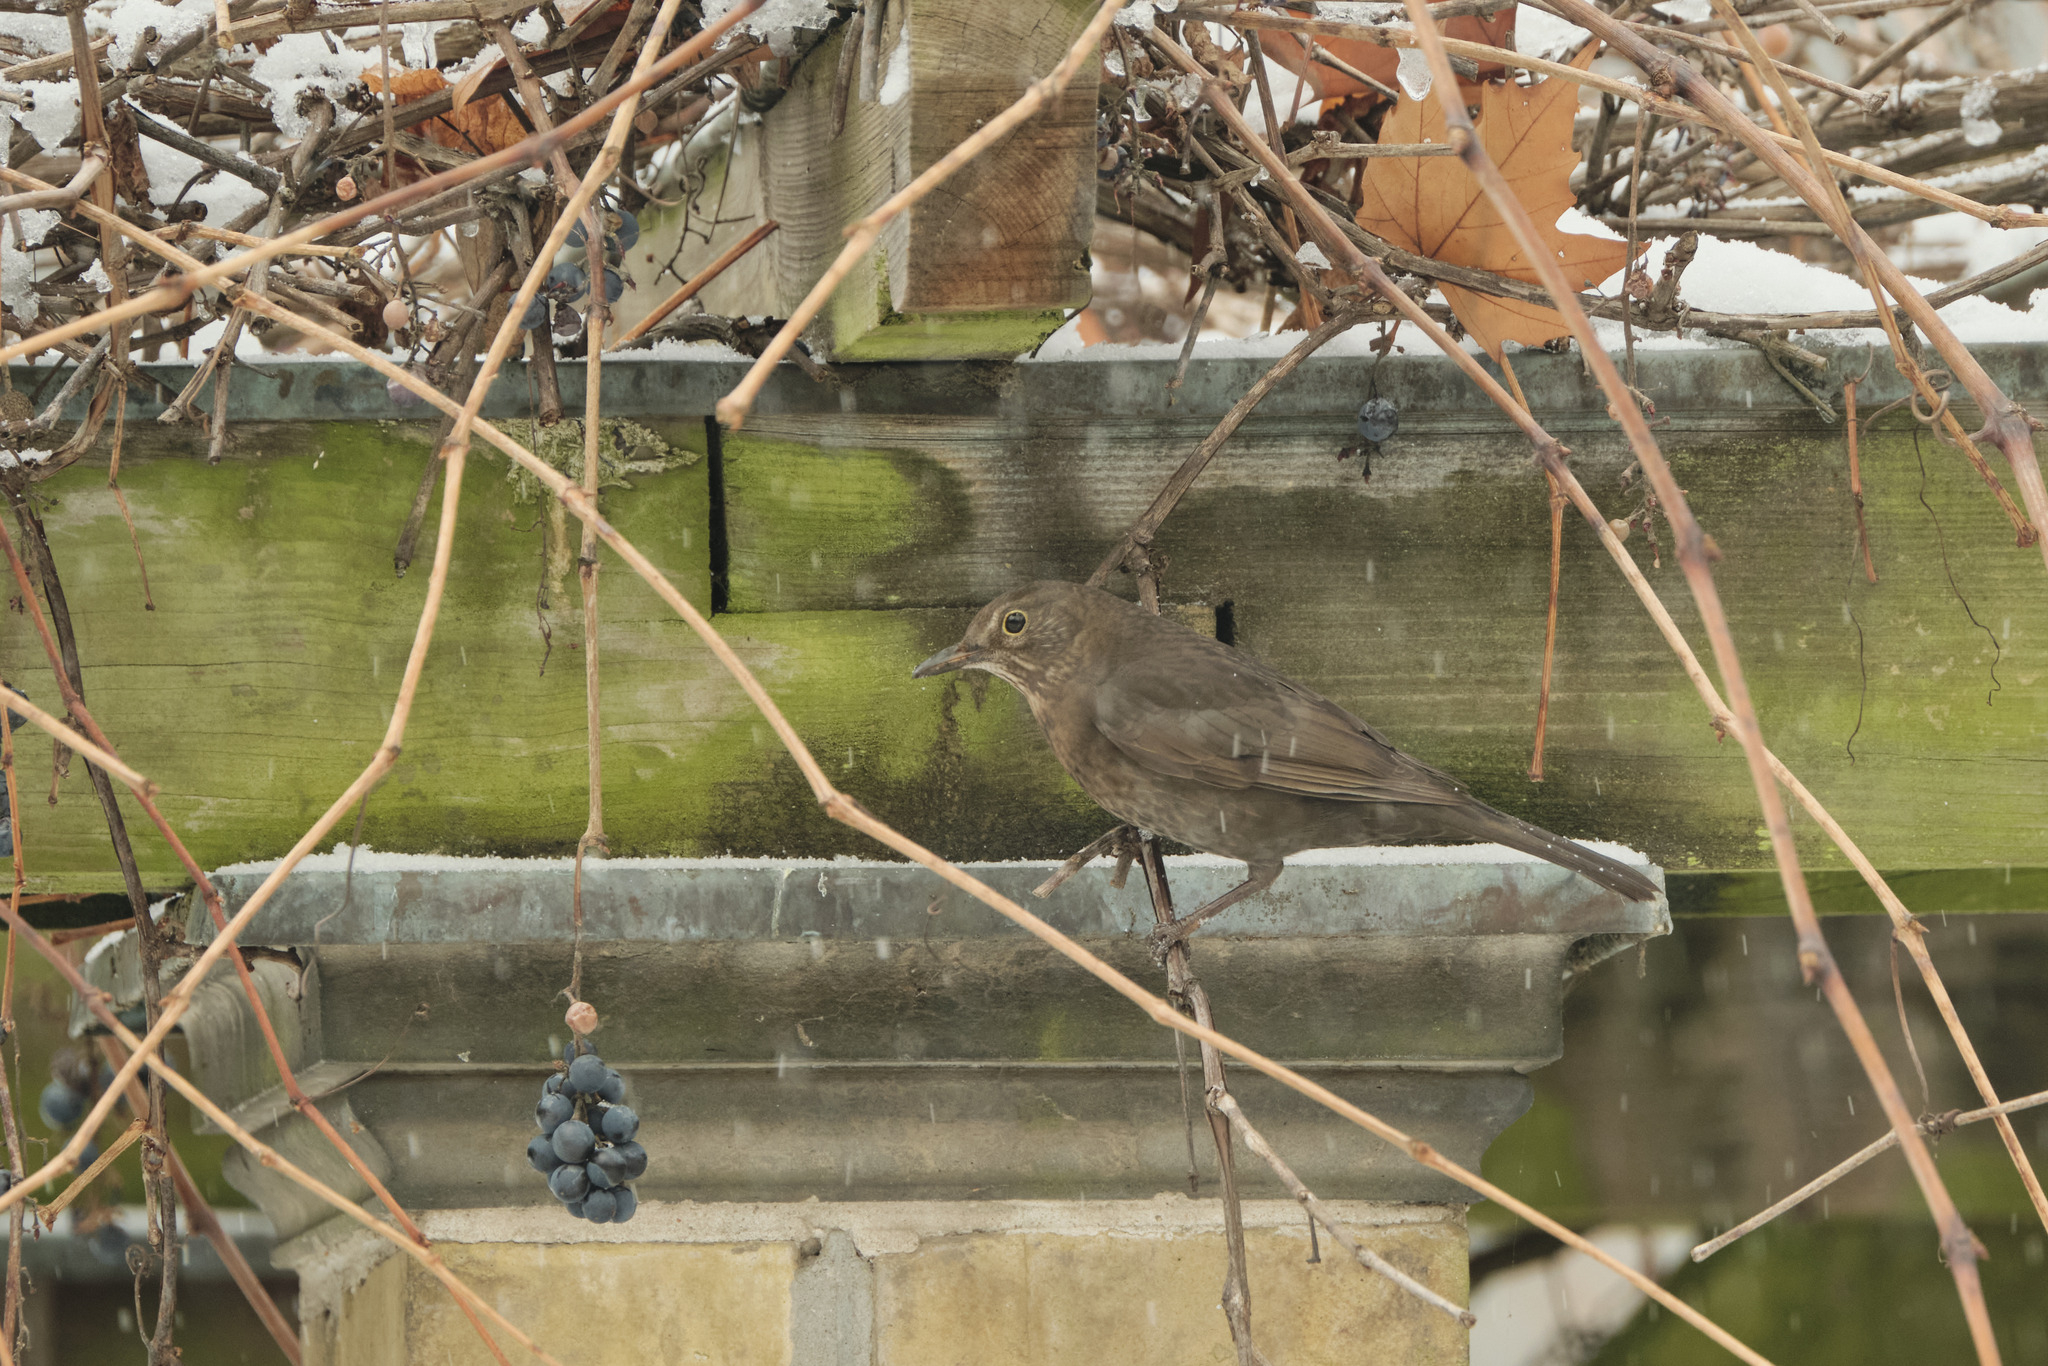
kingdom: Animalia
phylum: Chordata
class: Aves
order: Passeriformes
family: Turdidae
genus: Turdus
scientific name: Turdus merula
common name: Common blackbird
